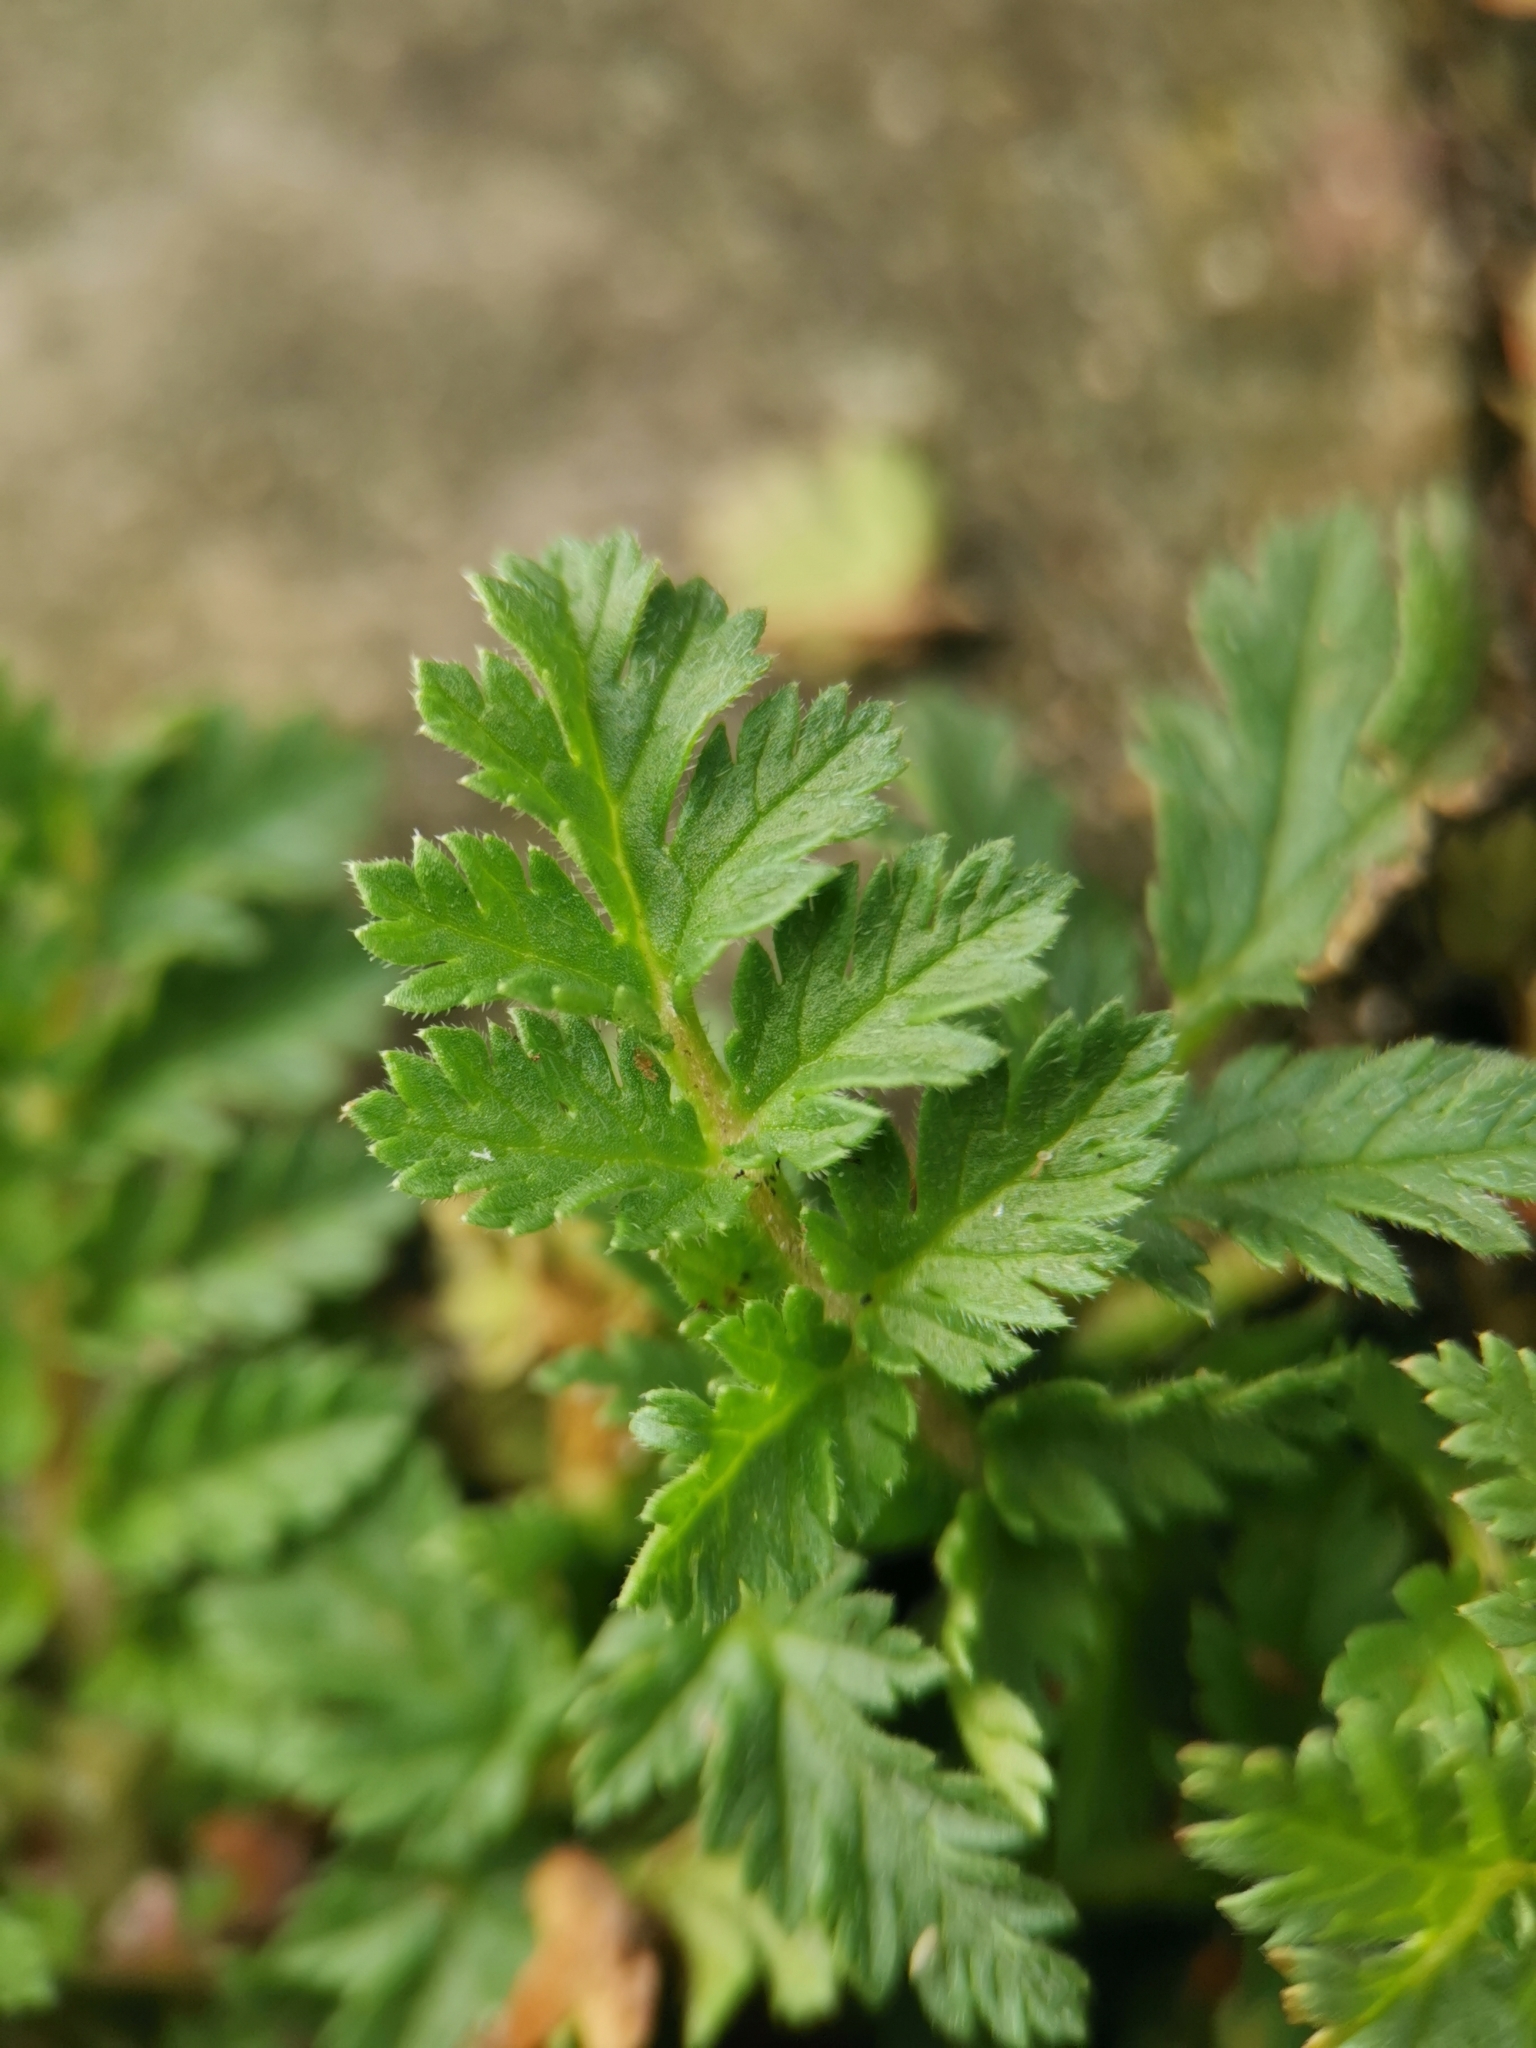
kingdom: Plantae
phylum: Tracheophyta
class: Magnoliopsida
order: Geraniales
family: Geraniaceae
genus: Erodium
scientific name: Erodium cicutarium
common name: Common stork's-bill
